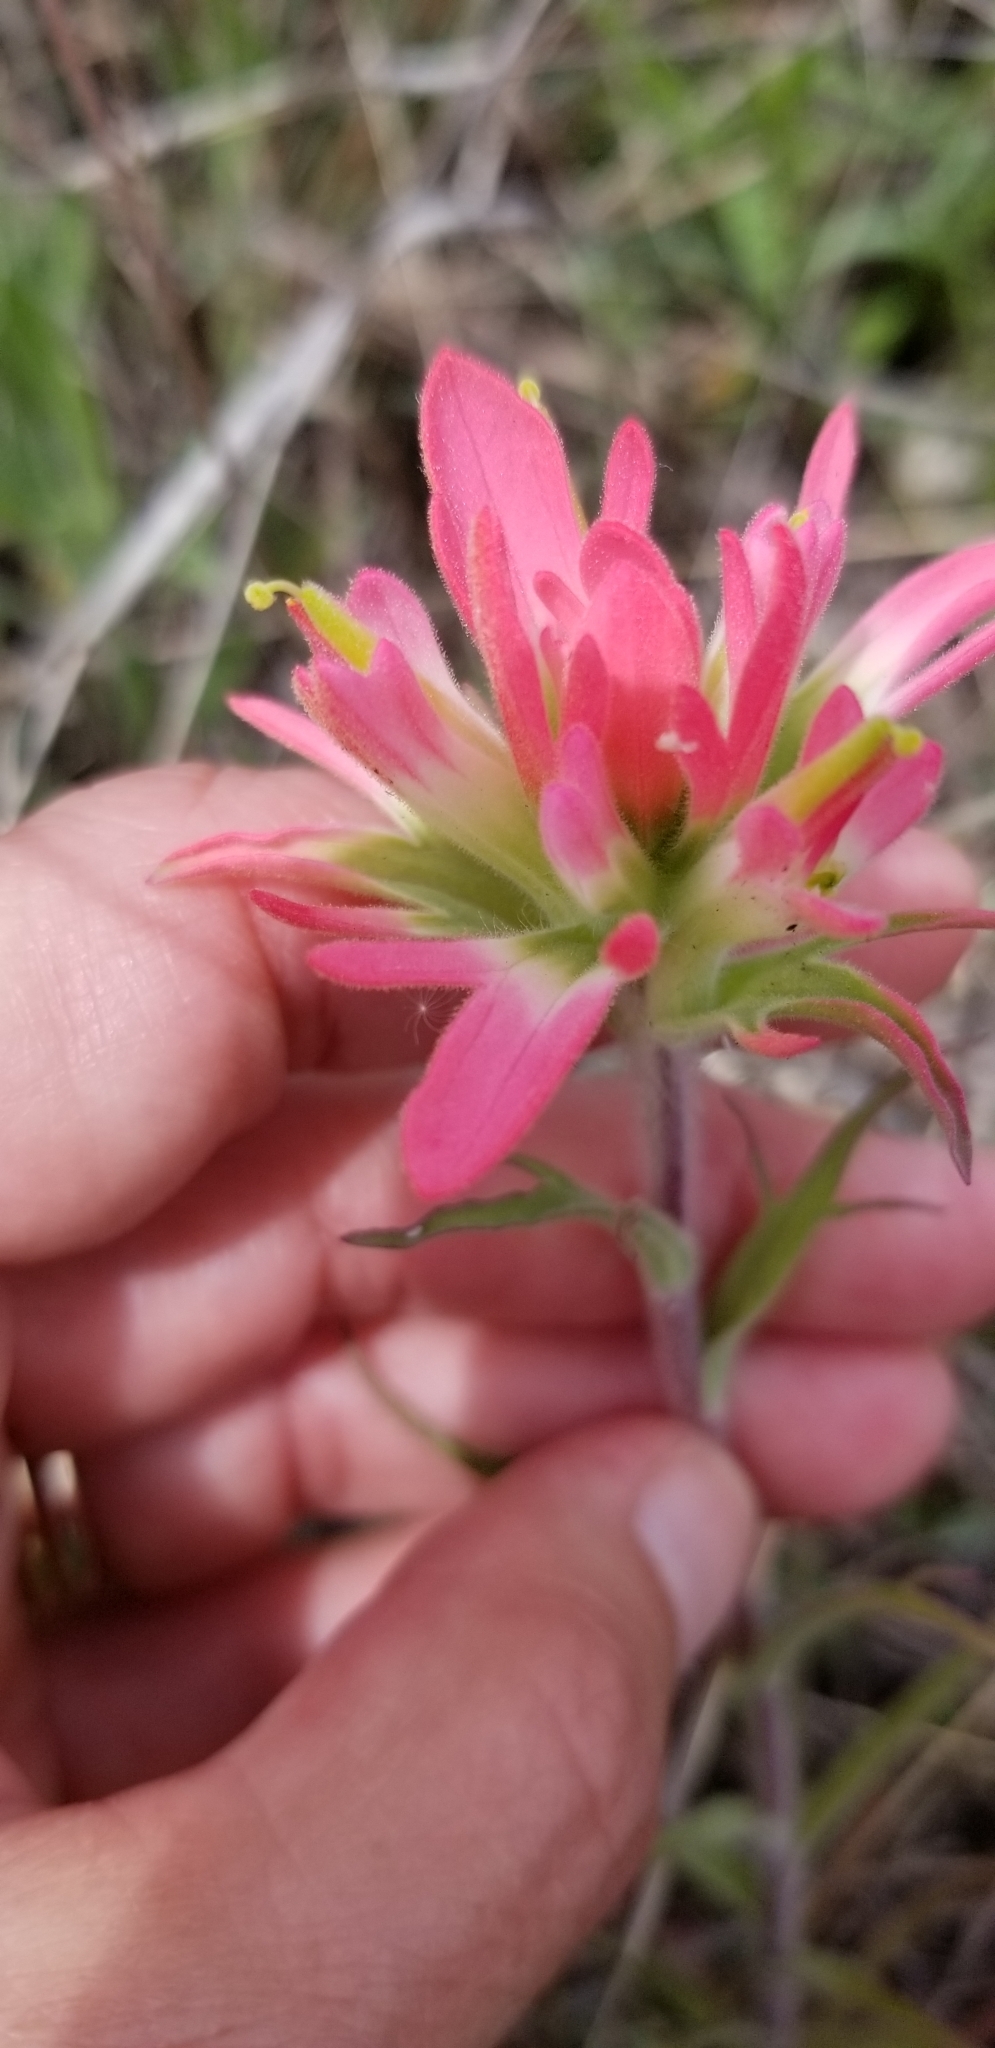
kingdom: Plantae
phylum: Tracheophyta
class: Magnoliopsida
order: Lamiales
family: Orobanchaceae
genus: Castilleja
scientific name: Castilleja indivisa
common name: Texas paintbrush
